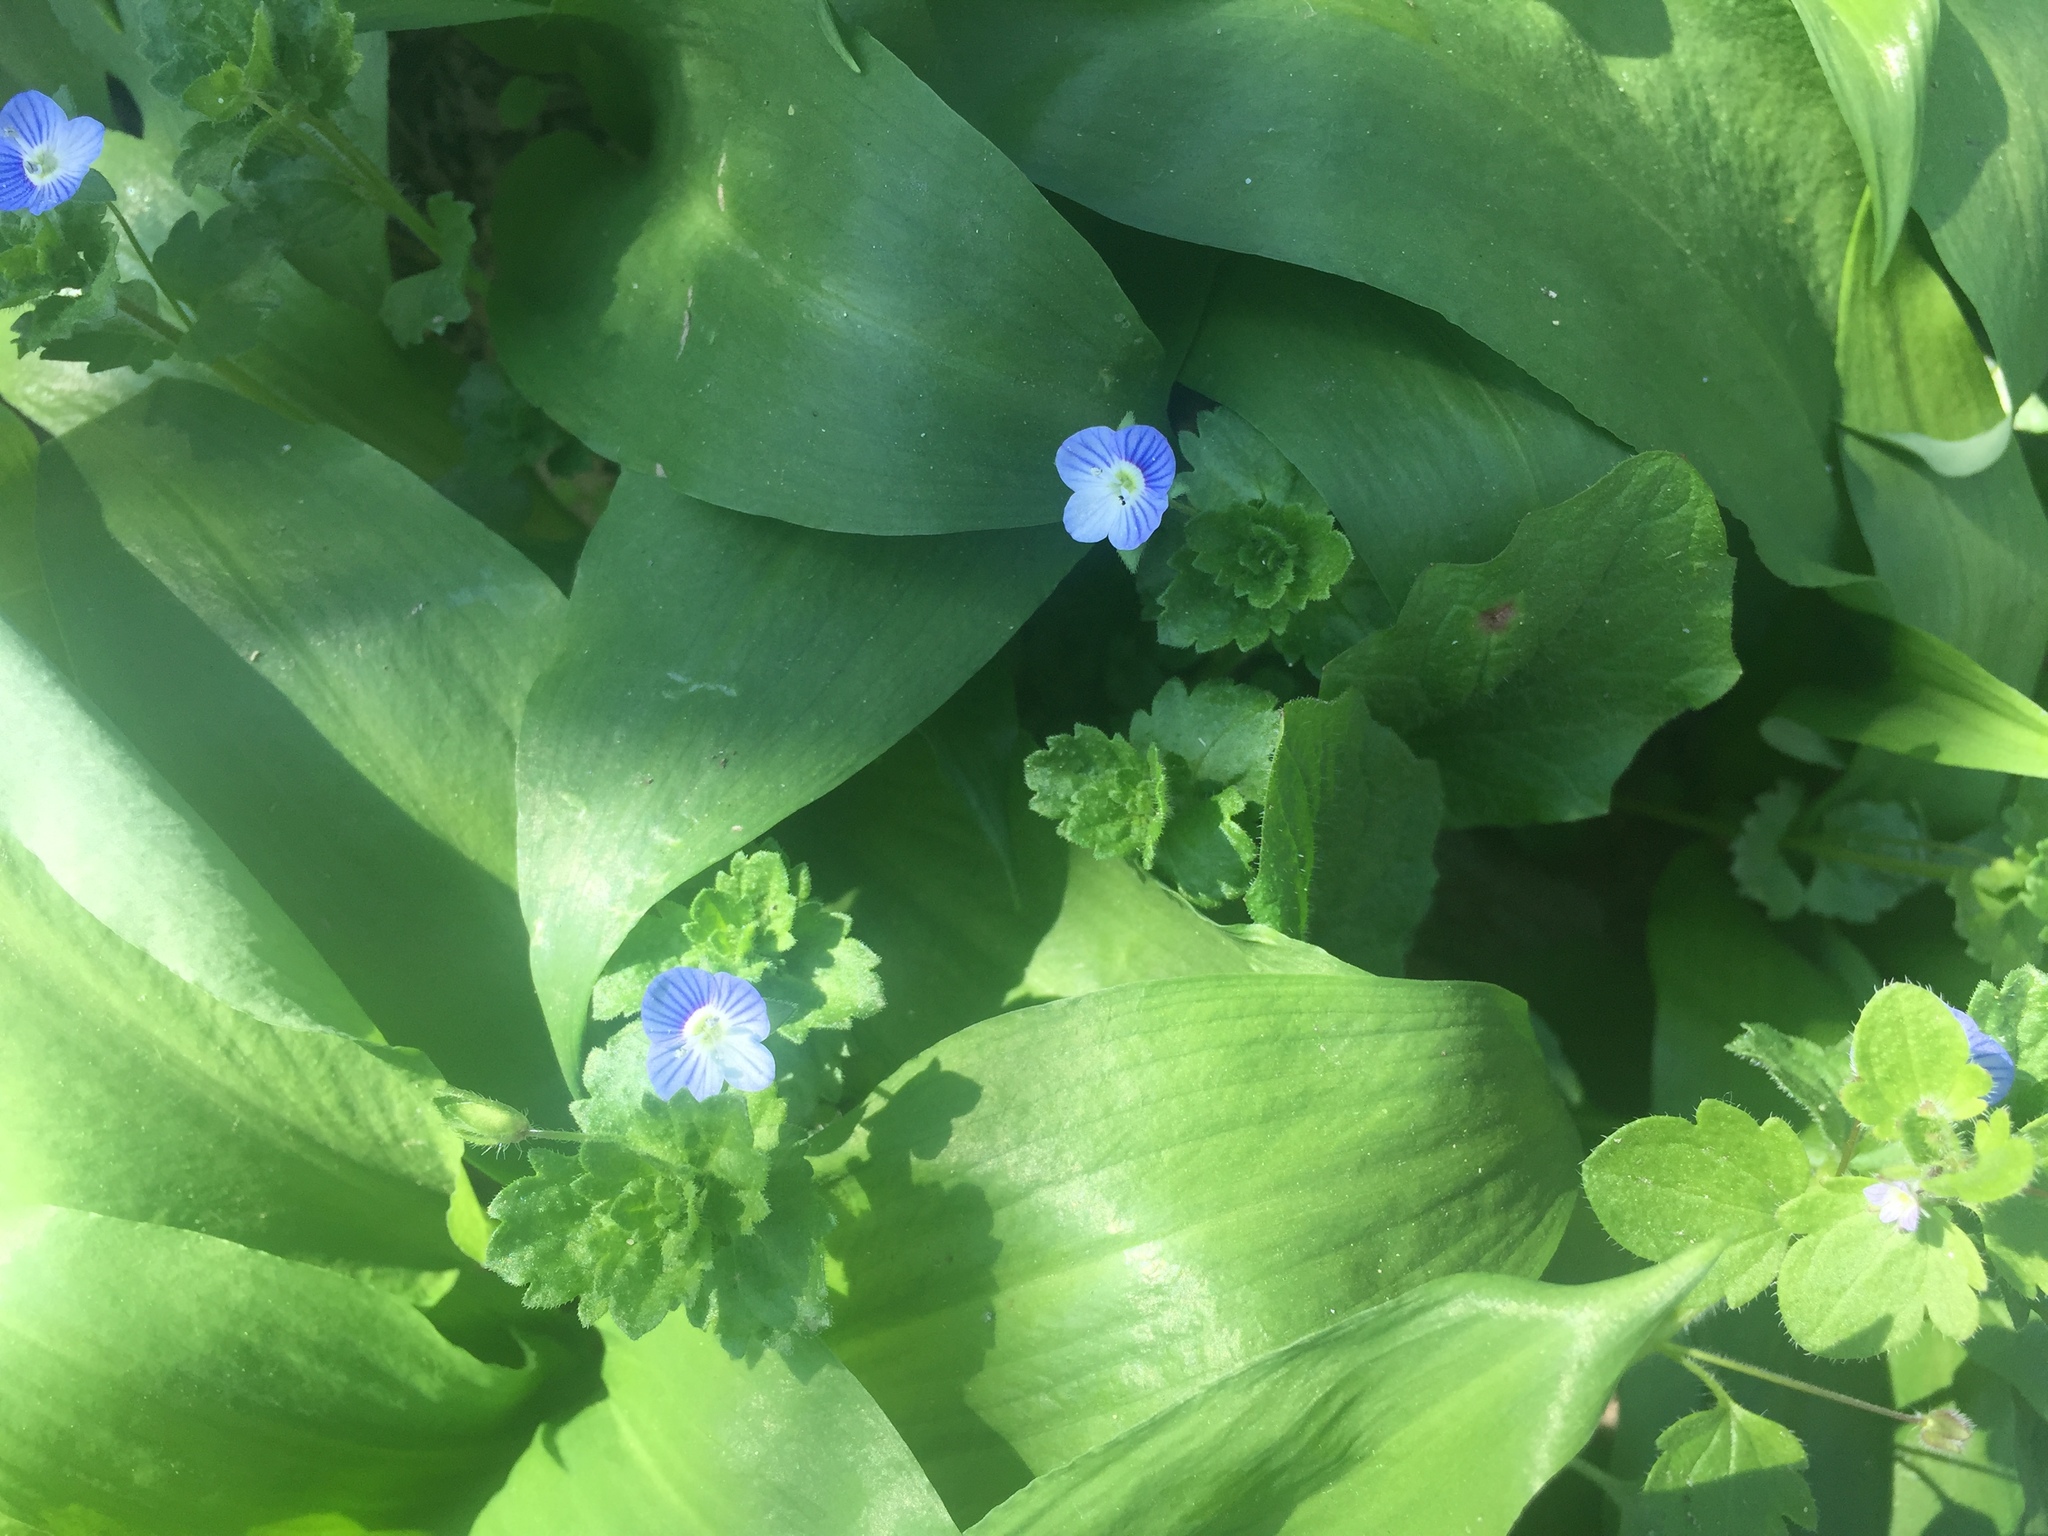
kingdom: Plantae
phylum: Tracheophyta
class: Magnoliopsida
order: Lamiales
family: Plantaginaceae
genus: Veronica
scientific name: Veronica persica
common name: Common field-speedwell
